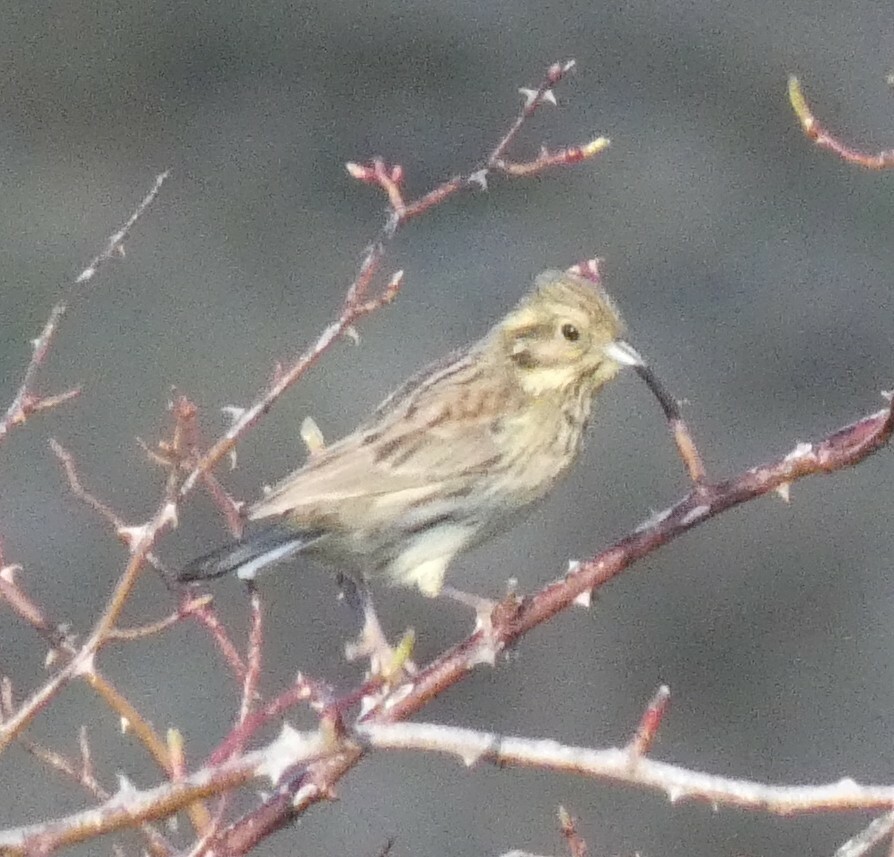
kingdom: Animalia
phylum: Chordata
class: Aves
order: Passeriformes
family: Emberizidae
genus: Emberiza
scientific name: Emberiza cirlus
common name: Cirl bunting
